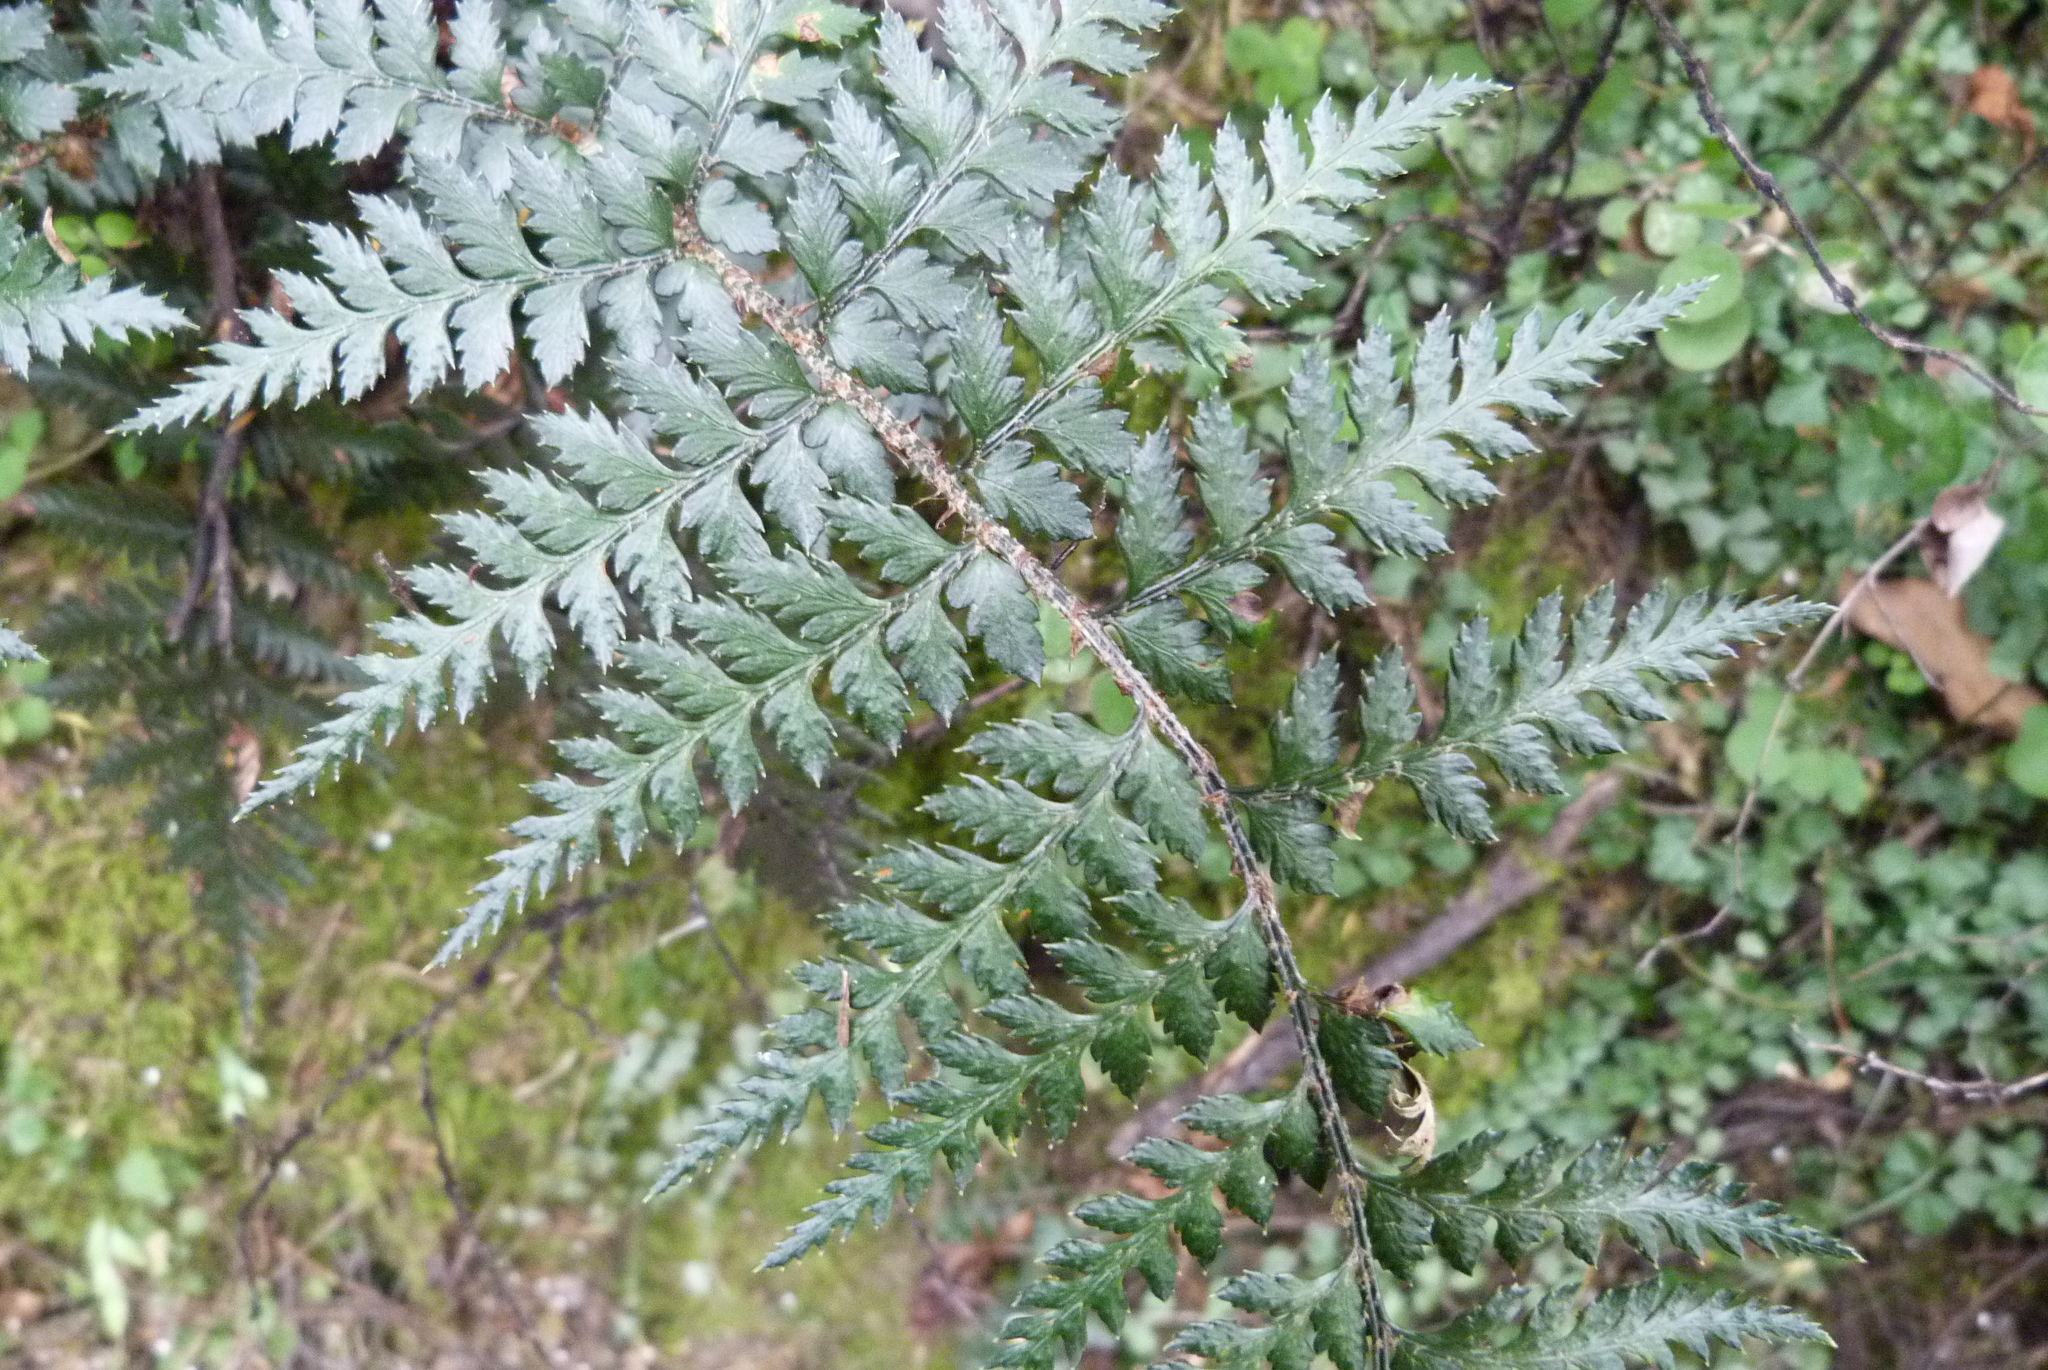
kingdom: Plantae
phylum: Tracheophyta
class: Polypodiopsida
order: Polypodiales
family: Dryopteridaceae
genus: Polystichum
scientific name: Polystichum oculatum
